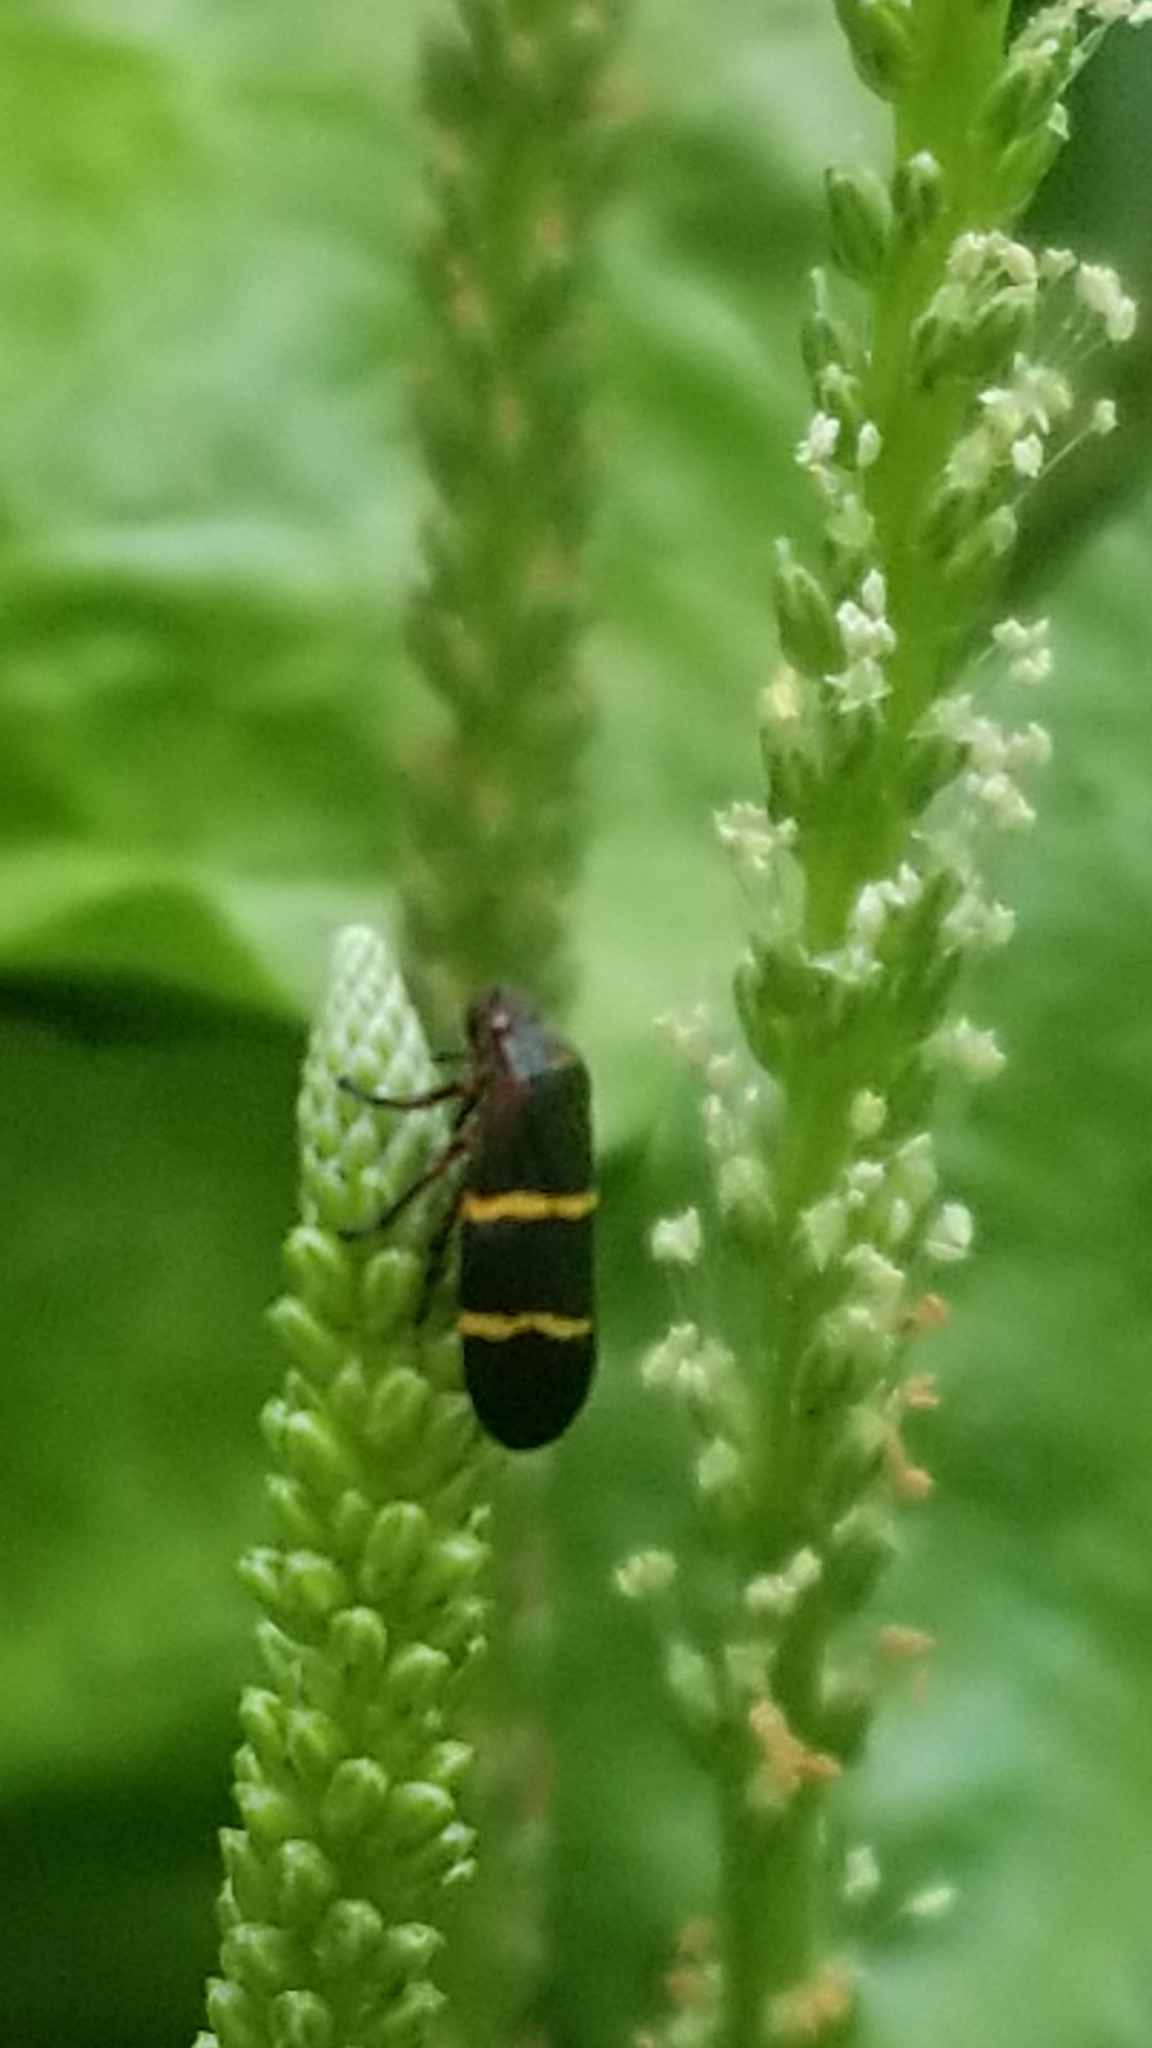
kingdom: Animalia
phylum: Arthropoda
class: Insecta
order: Hemiptera
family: Cercopidae
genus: Prosapia
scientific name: Prosapia bicincta
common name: Twolined spittlebug
